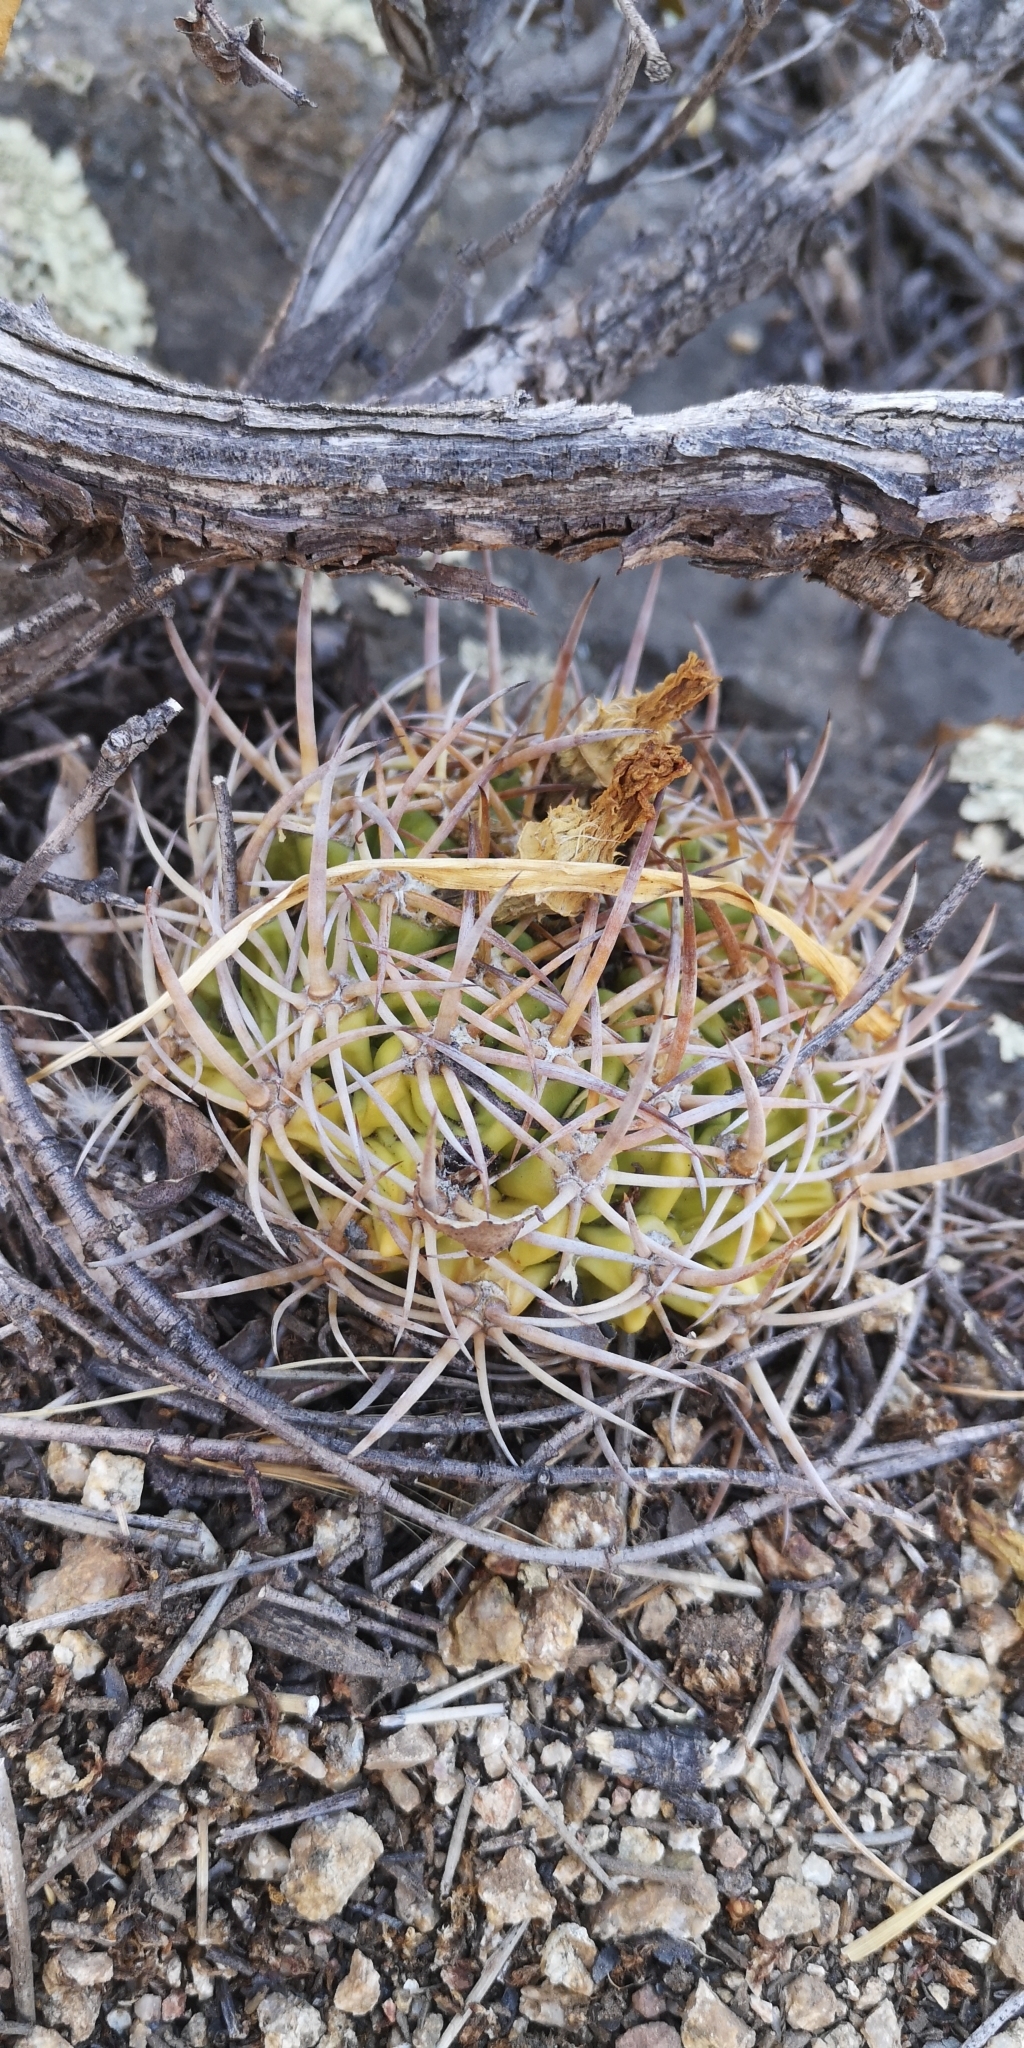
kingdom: Plantae
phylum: Tracheophyta
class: Magnoliopsida
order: Caryophyllales
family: Cactaceae
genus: Eriosyce
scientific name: Eriosyce curvispina
